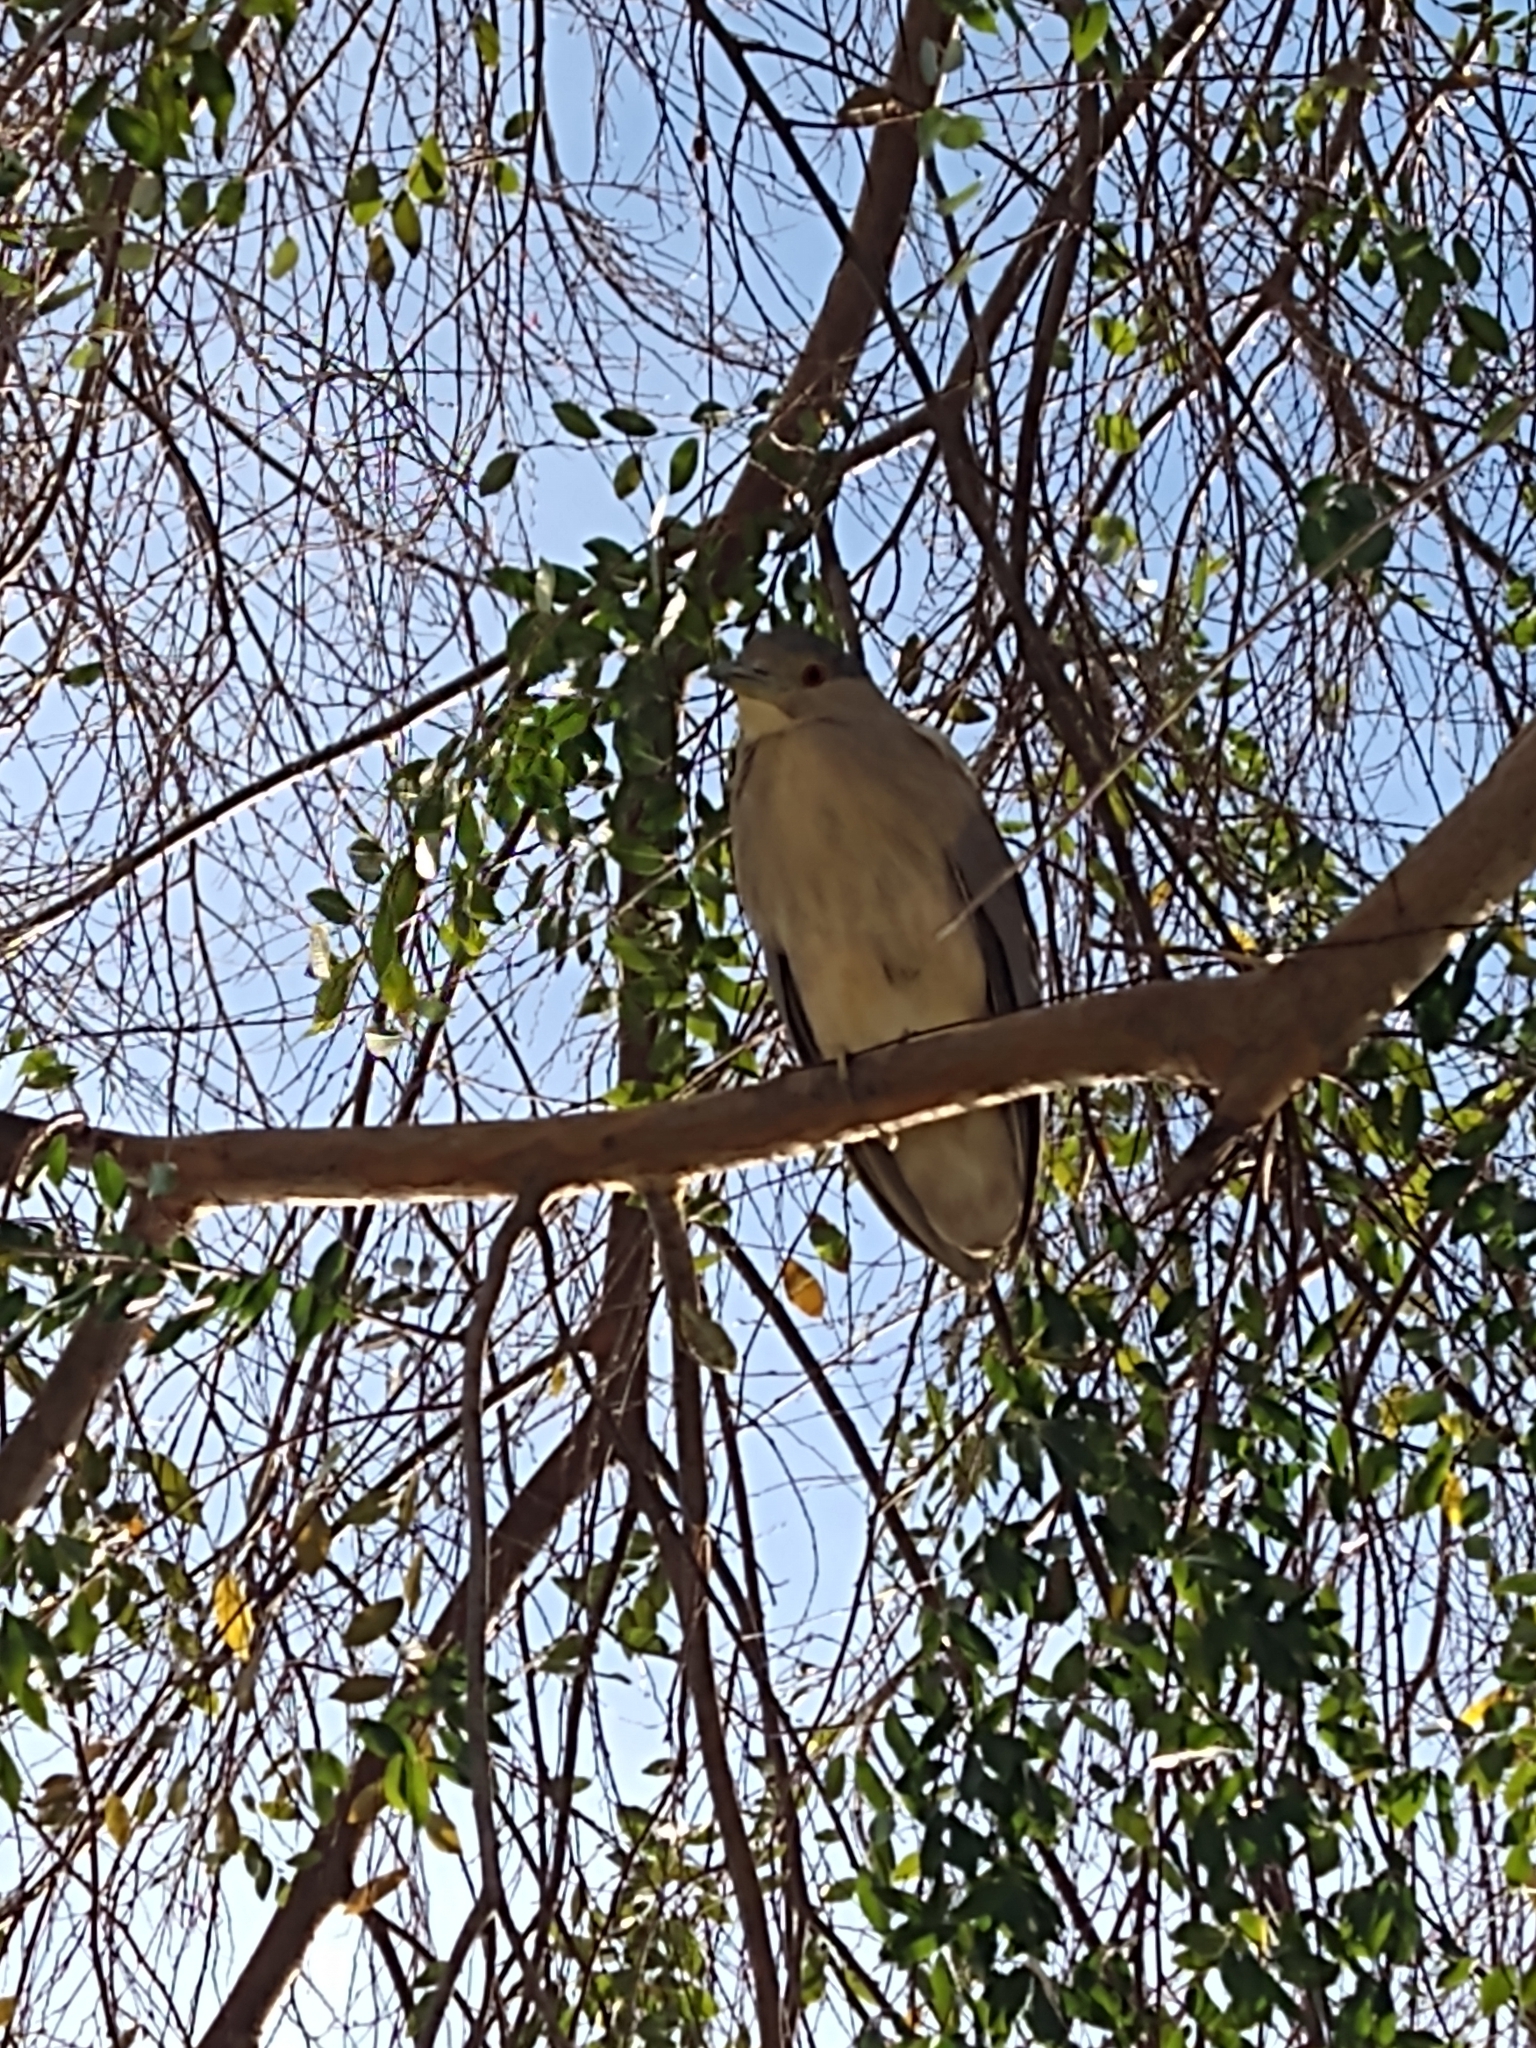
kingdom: Animalia
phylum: Chordata
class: Aves
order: Pelecaniformes
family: Ardeidae
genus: Nycticorax
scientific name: Nycticorax nycticorax
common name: Black-crowned night heron
